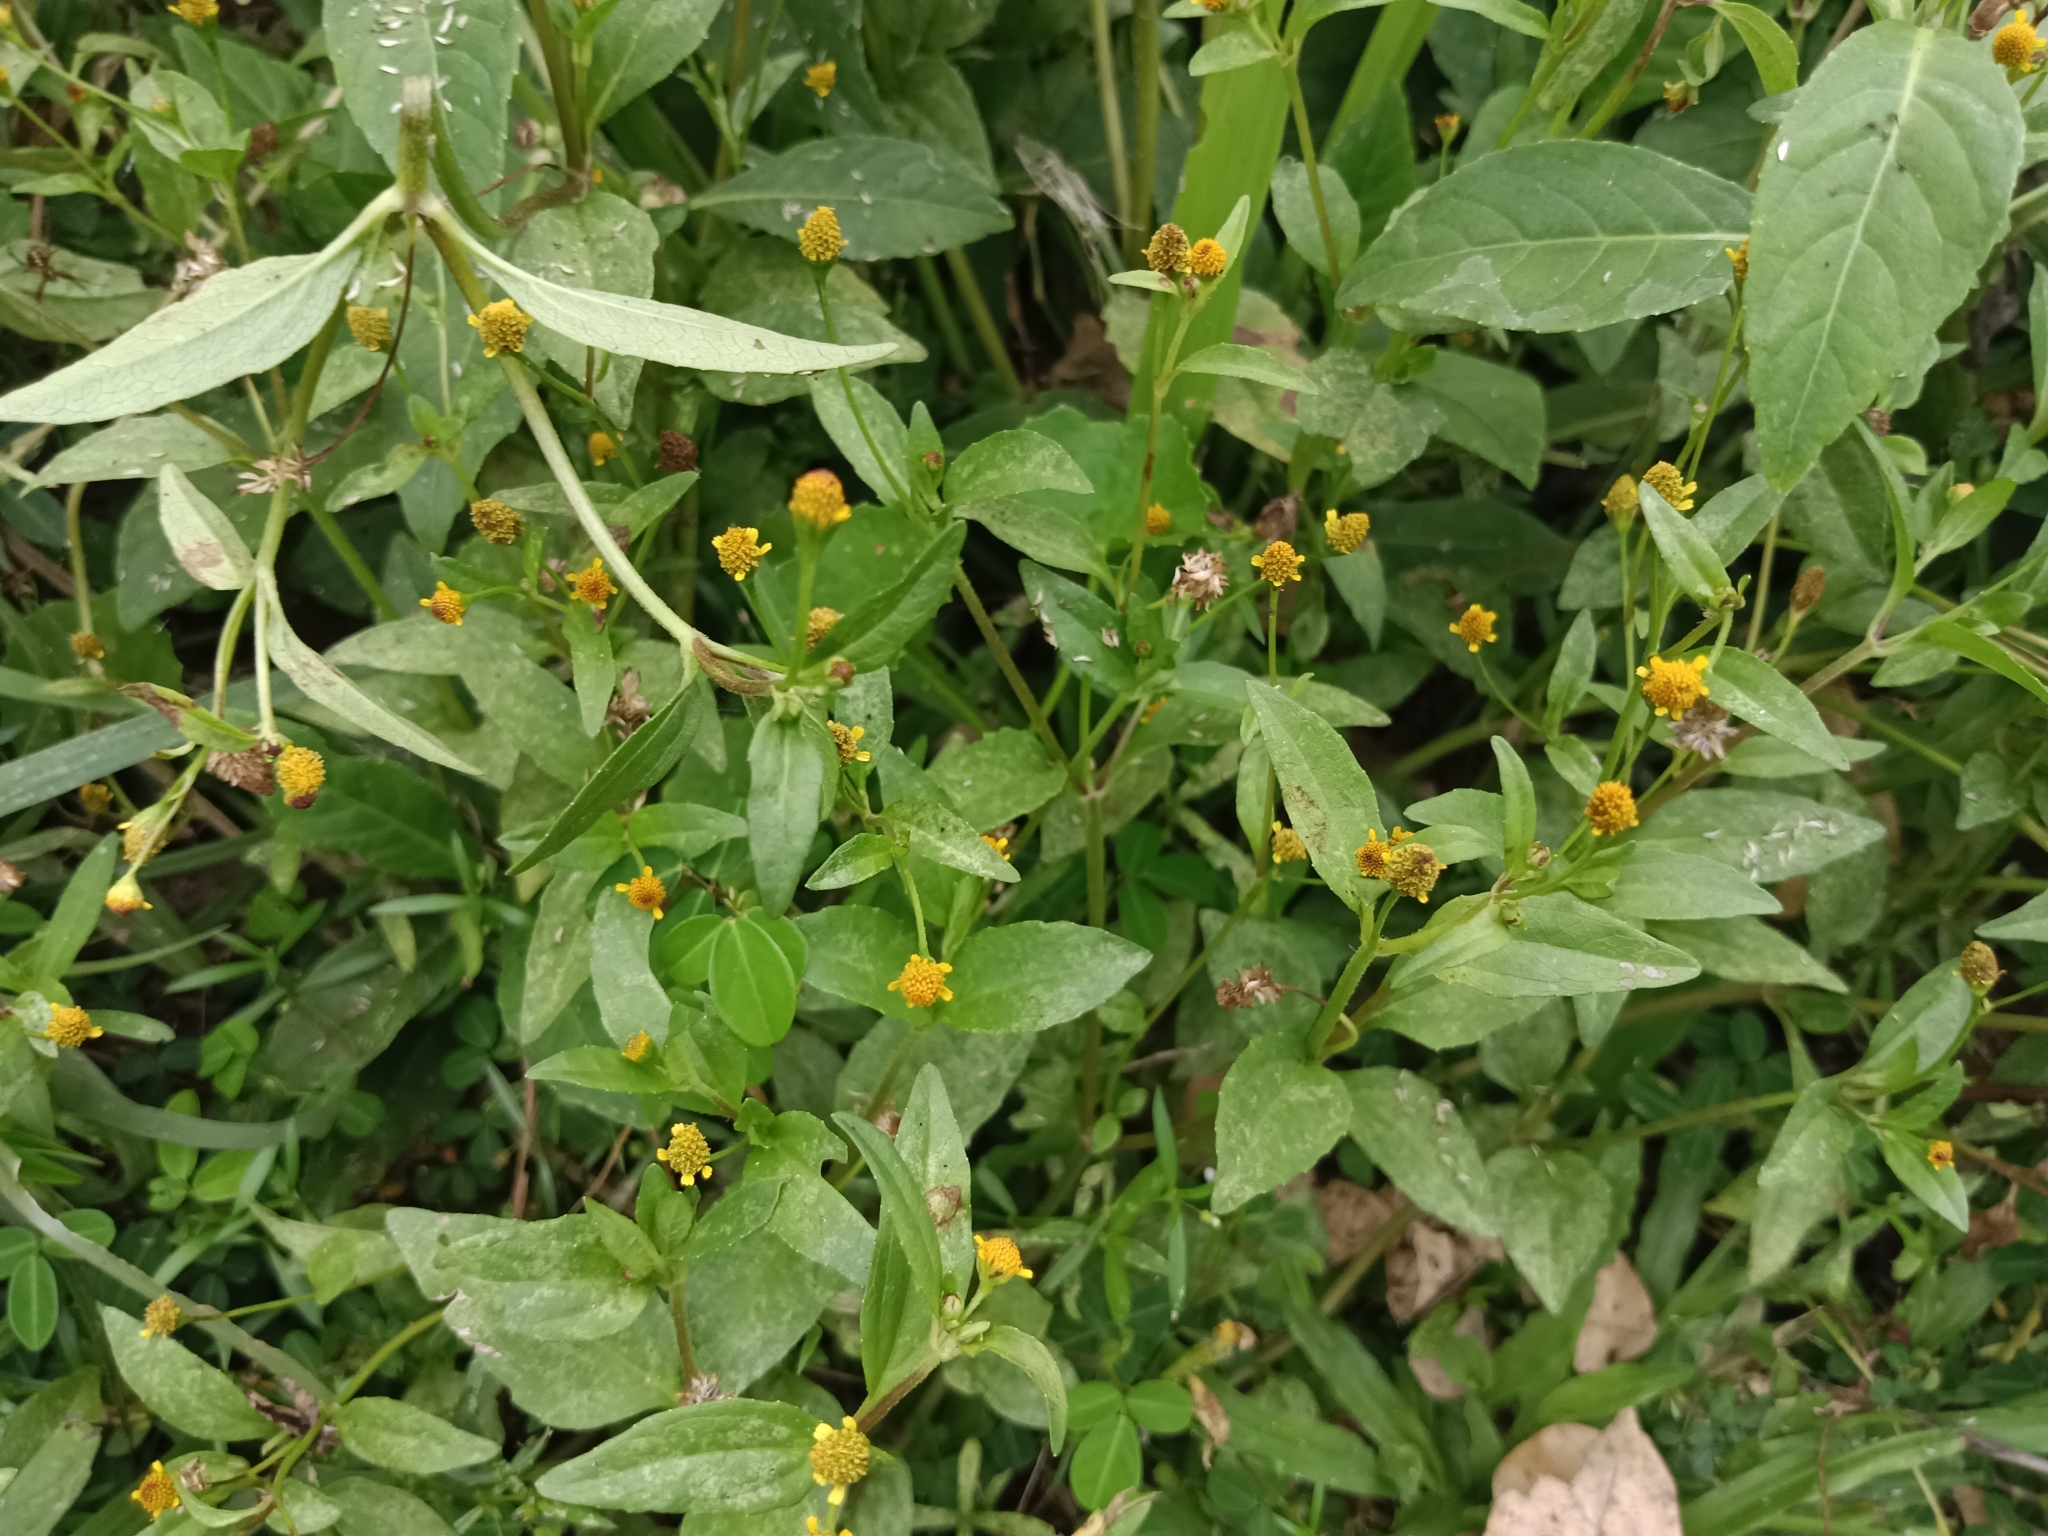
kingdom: Plantae
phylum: Tracheophyta
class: Magnoliopsida
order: Asterales
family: Asteraceae
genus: Acmella
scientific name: Acmella uliginosa
